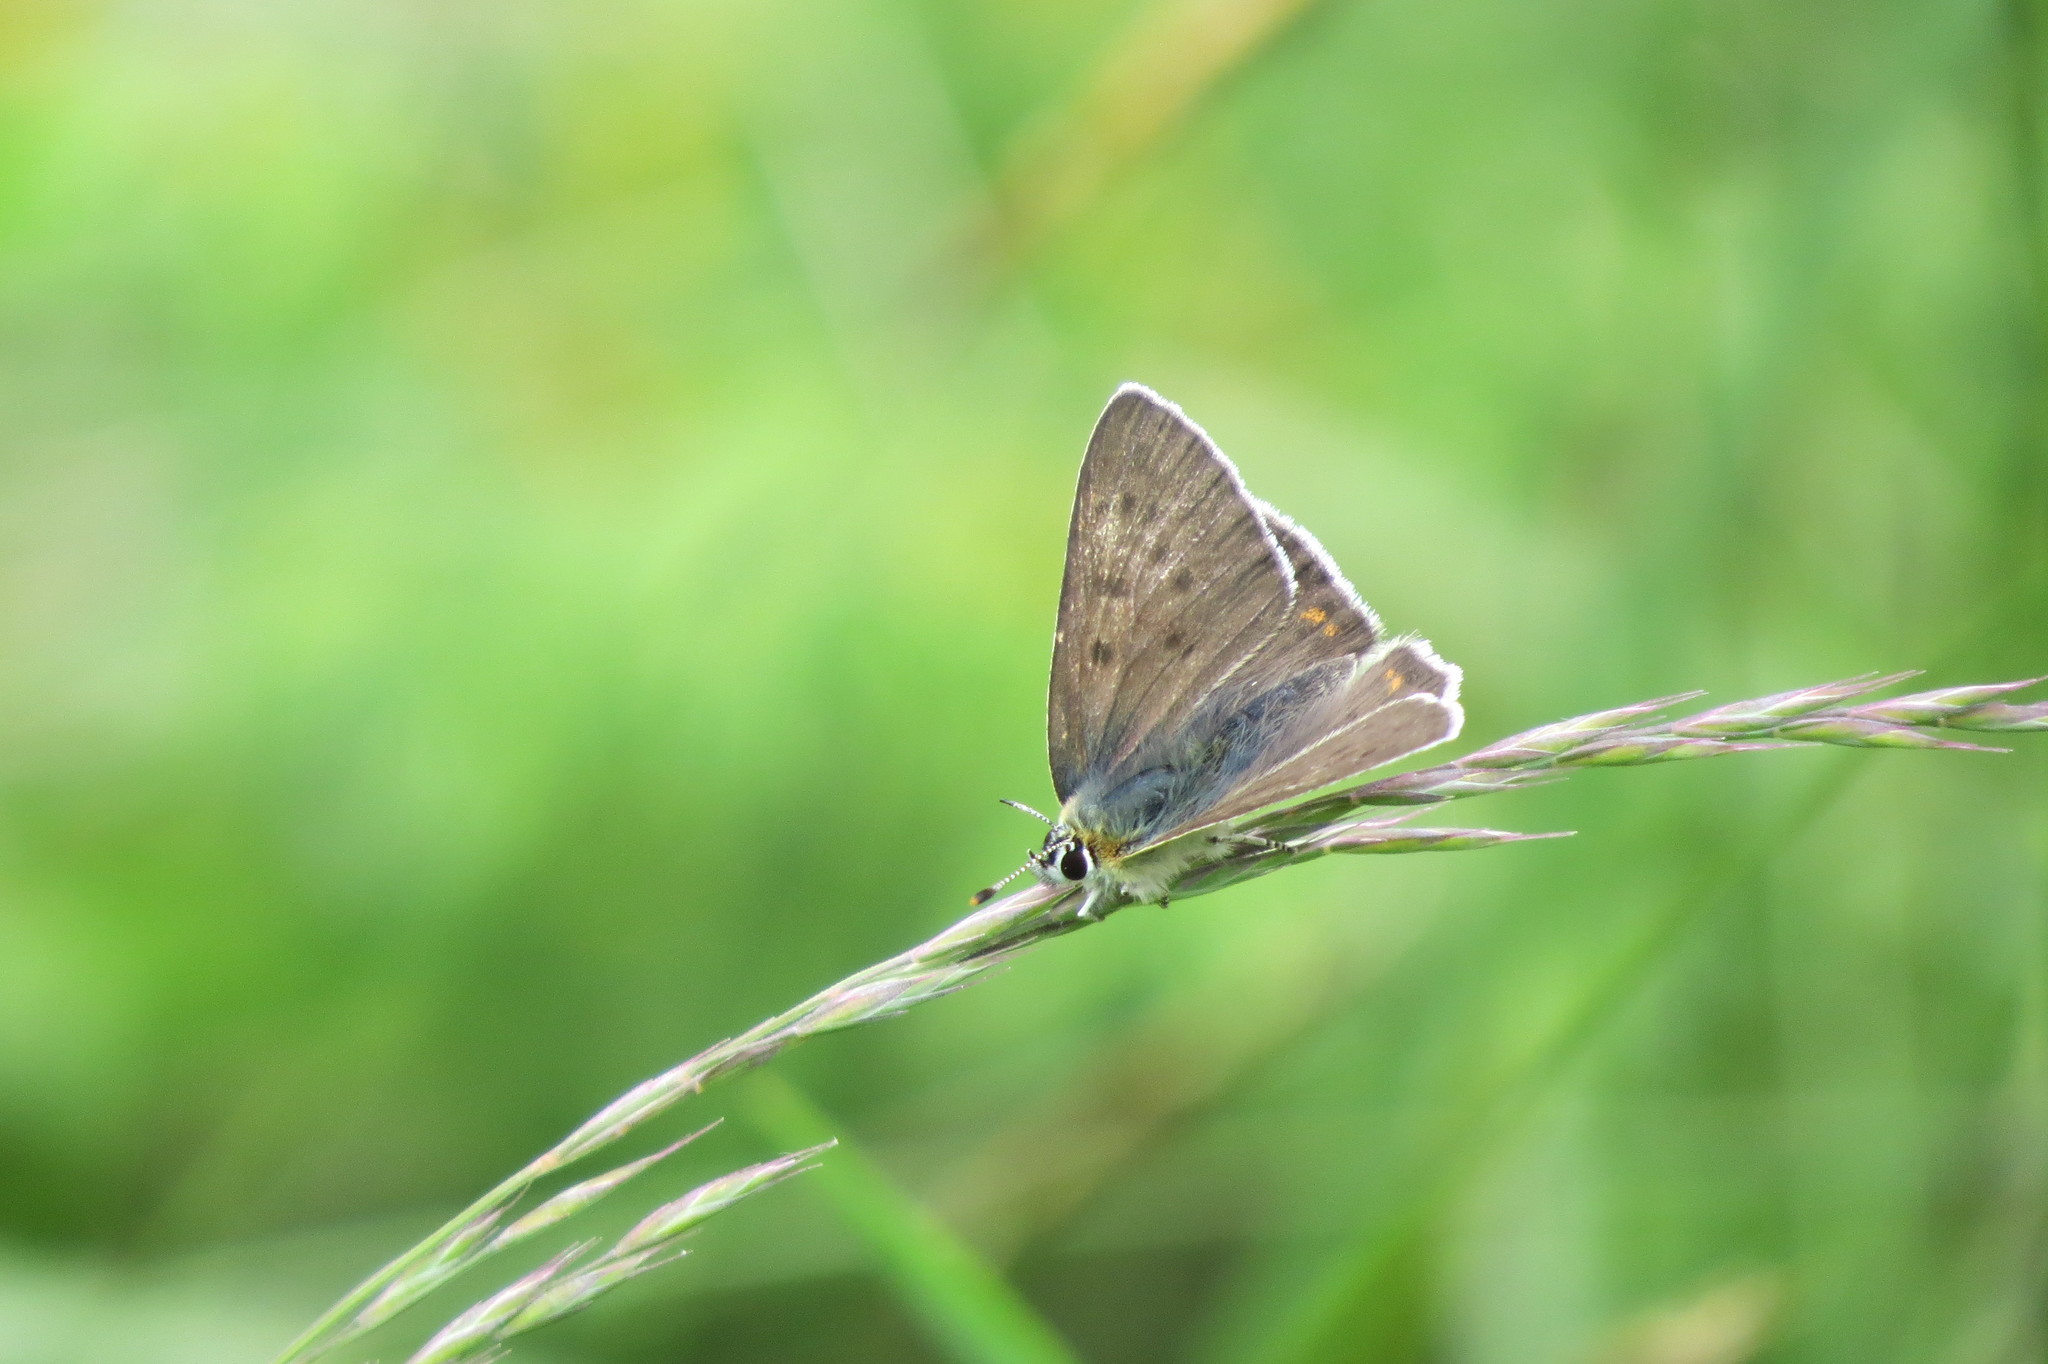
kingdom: Animalia
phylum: Arthropoda
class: Insecta
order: Lepidoptera
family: Lycaenidae
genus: Loweia
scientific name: Loweia tityrus
